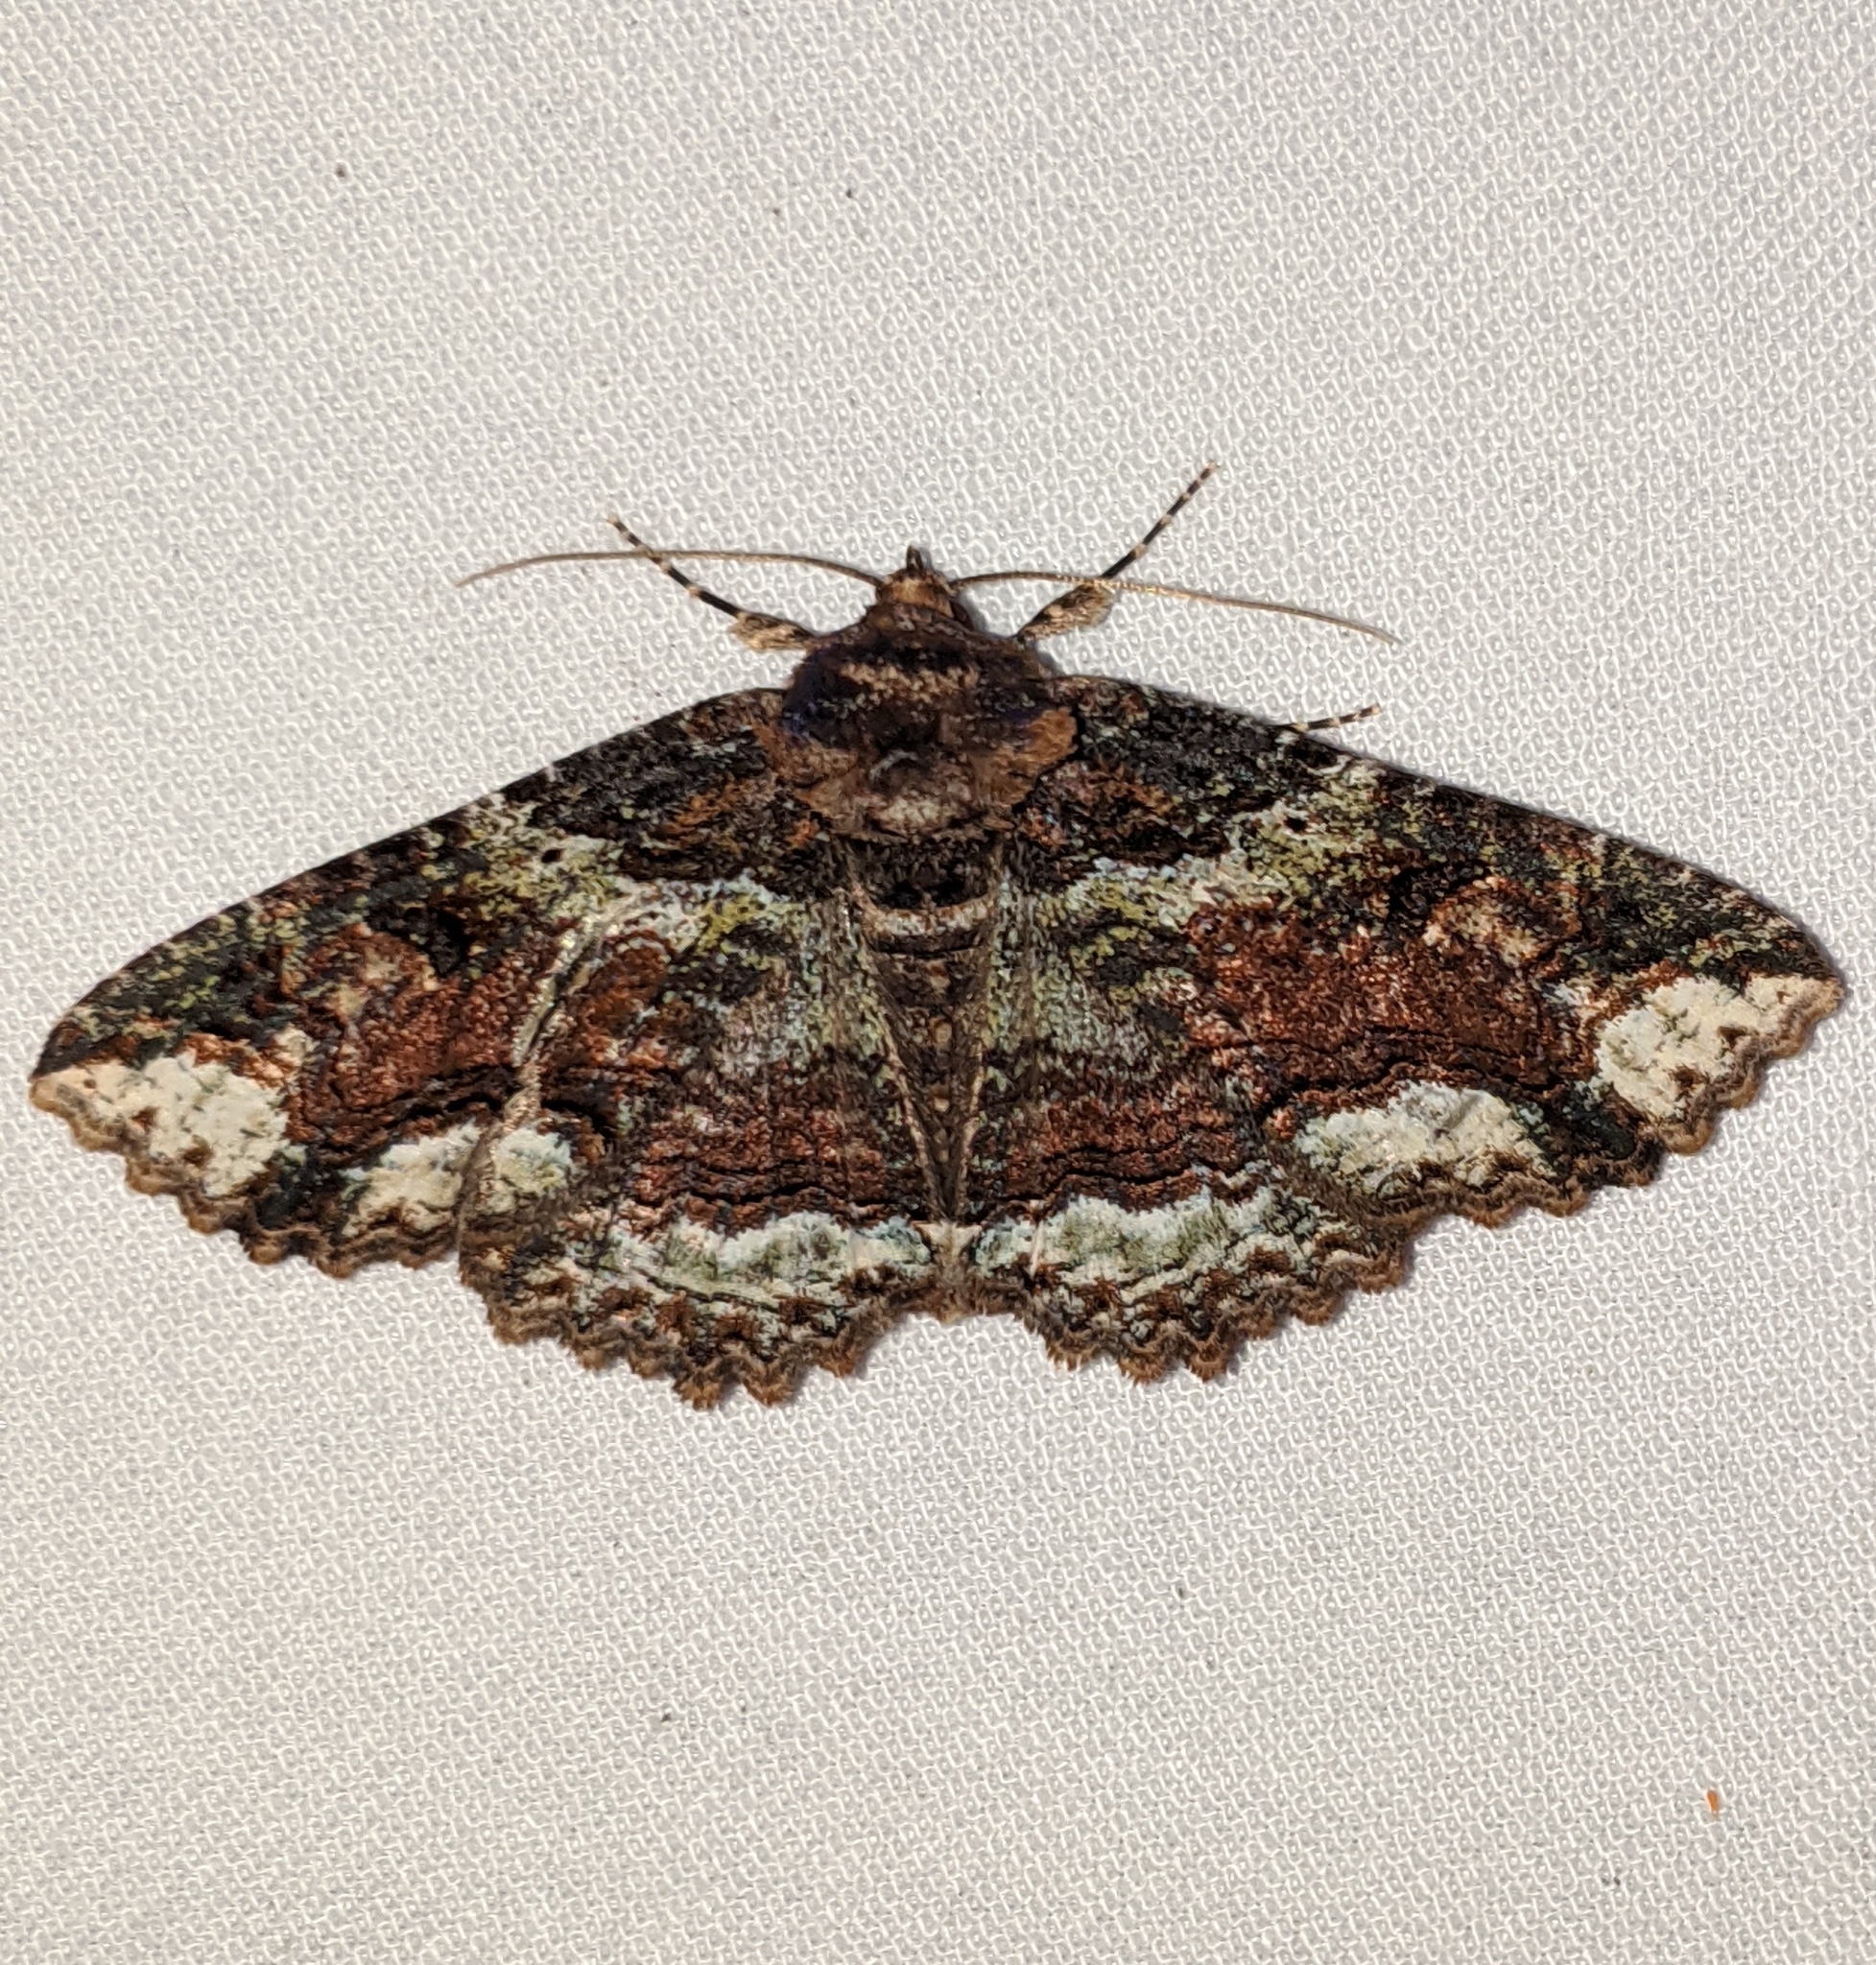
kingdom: Animalia
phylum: Arthropoda
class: Insecta
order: Lepidoptera
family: Erebidae
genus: Zale
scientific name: Zale minerea
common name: Colorful zale moth
